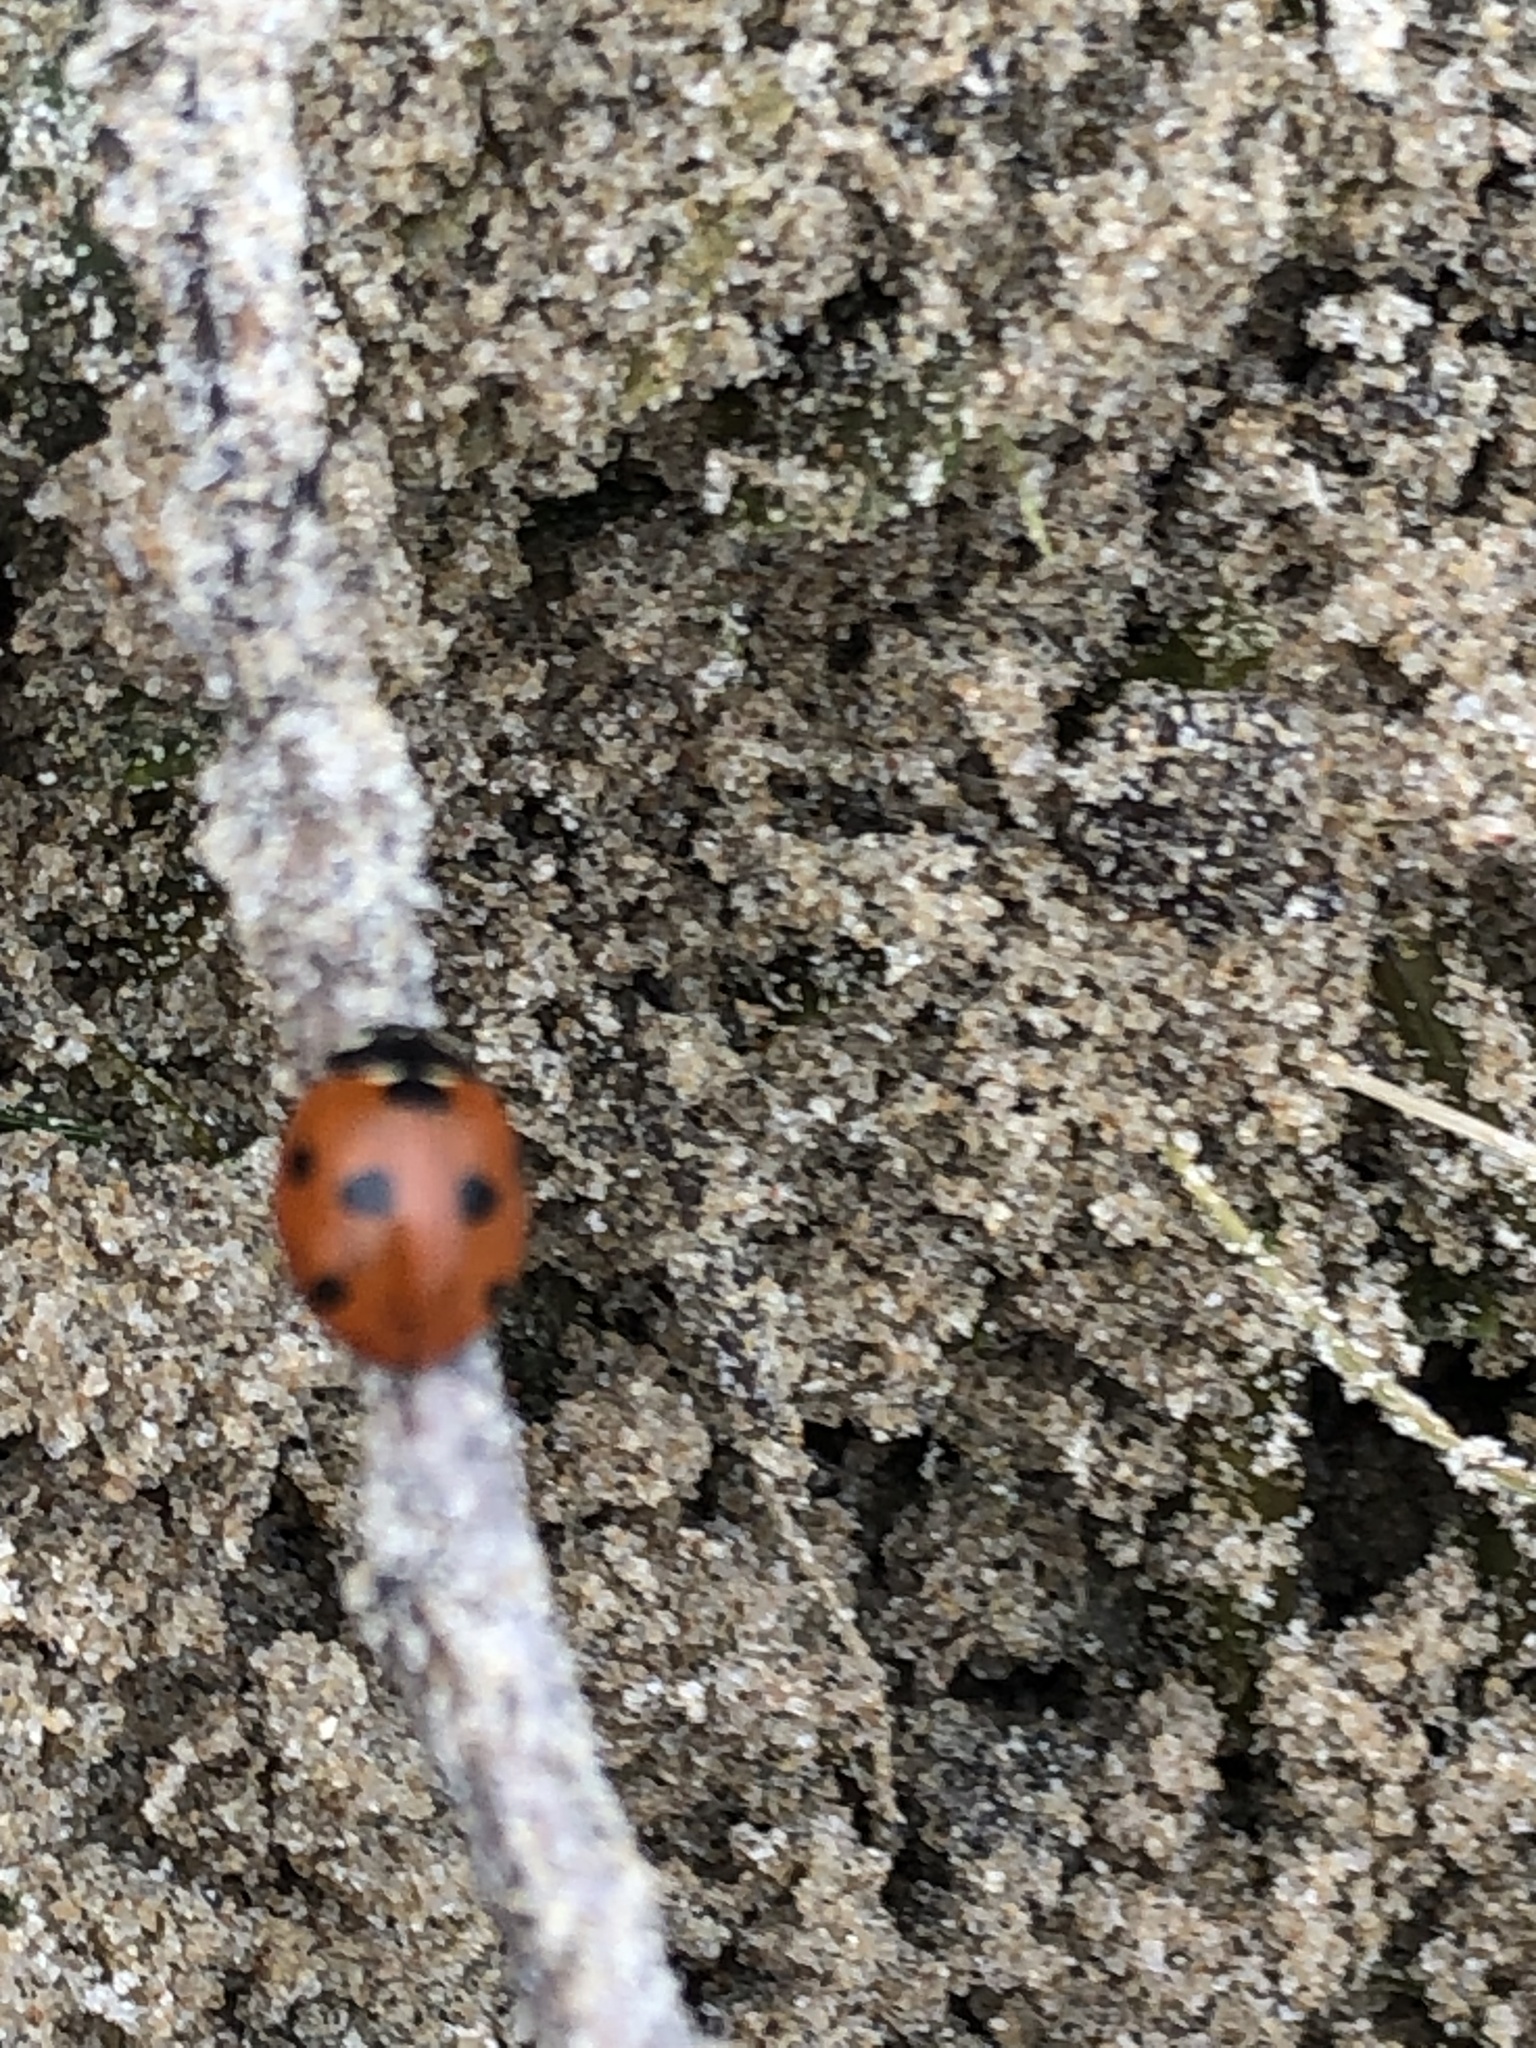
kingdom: Animalia
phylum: Arthropoda
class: Insecta
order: Coleoptera
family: Coccinellidae
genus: Coccinella
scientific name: Coccinella septempunctata
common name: Sevenspotted lady beetle
